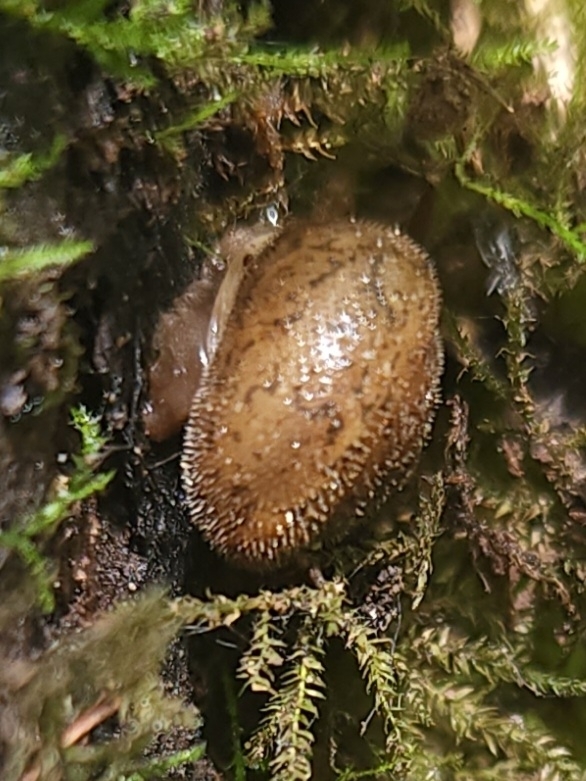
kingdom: Animalia
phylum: Mollusca
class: Gastropoda
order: Stylommatophora
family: Polygyridae
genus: Vespericola
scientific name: Vespericola columbianus
